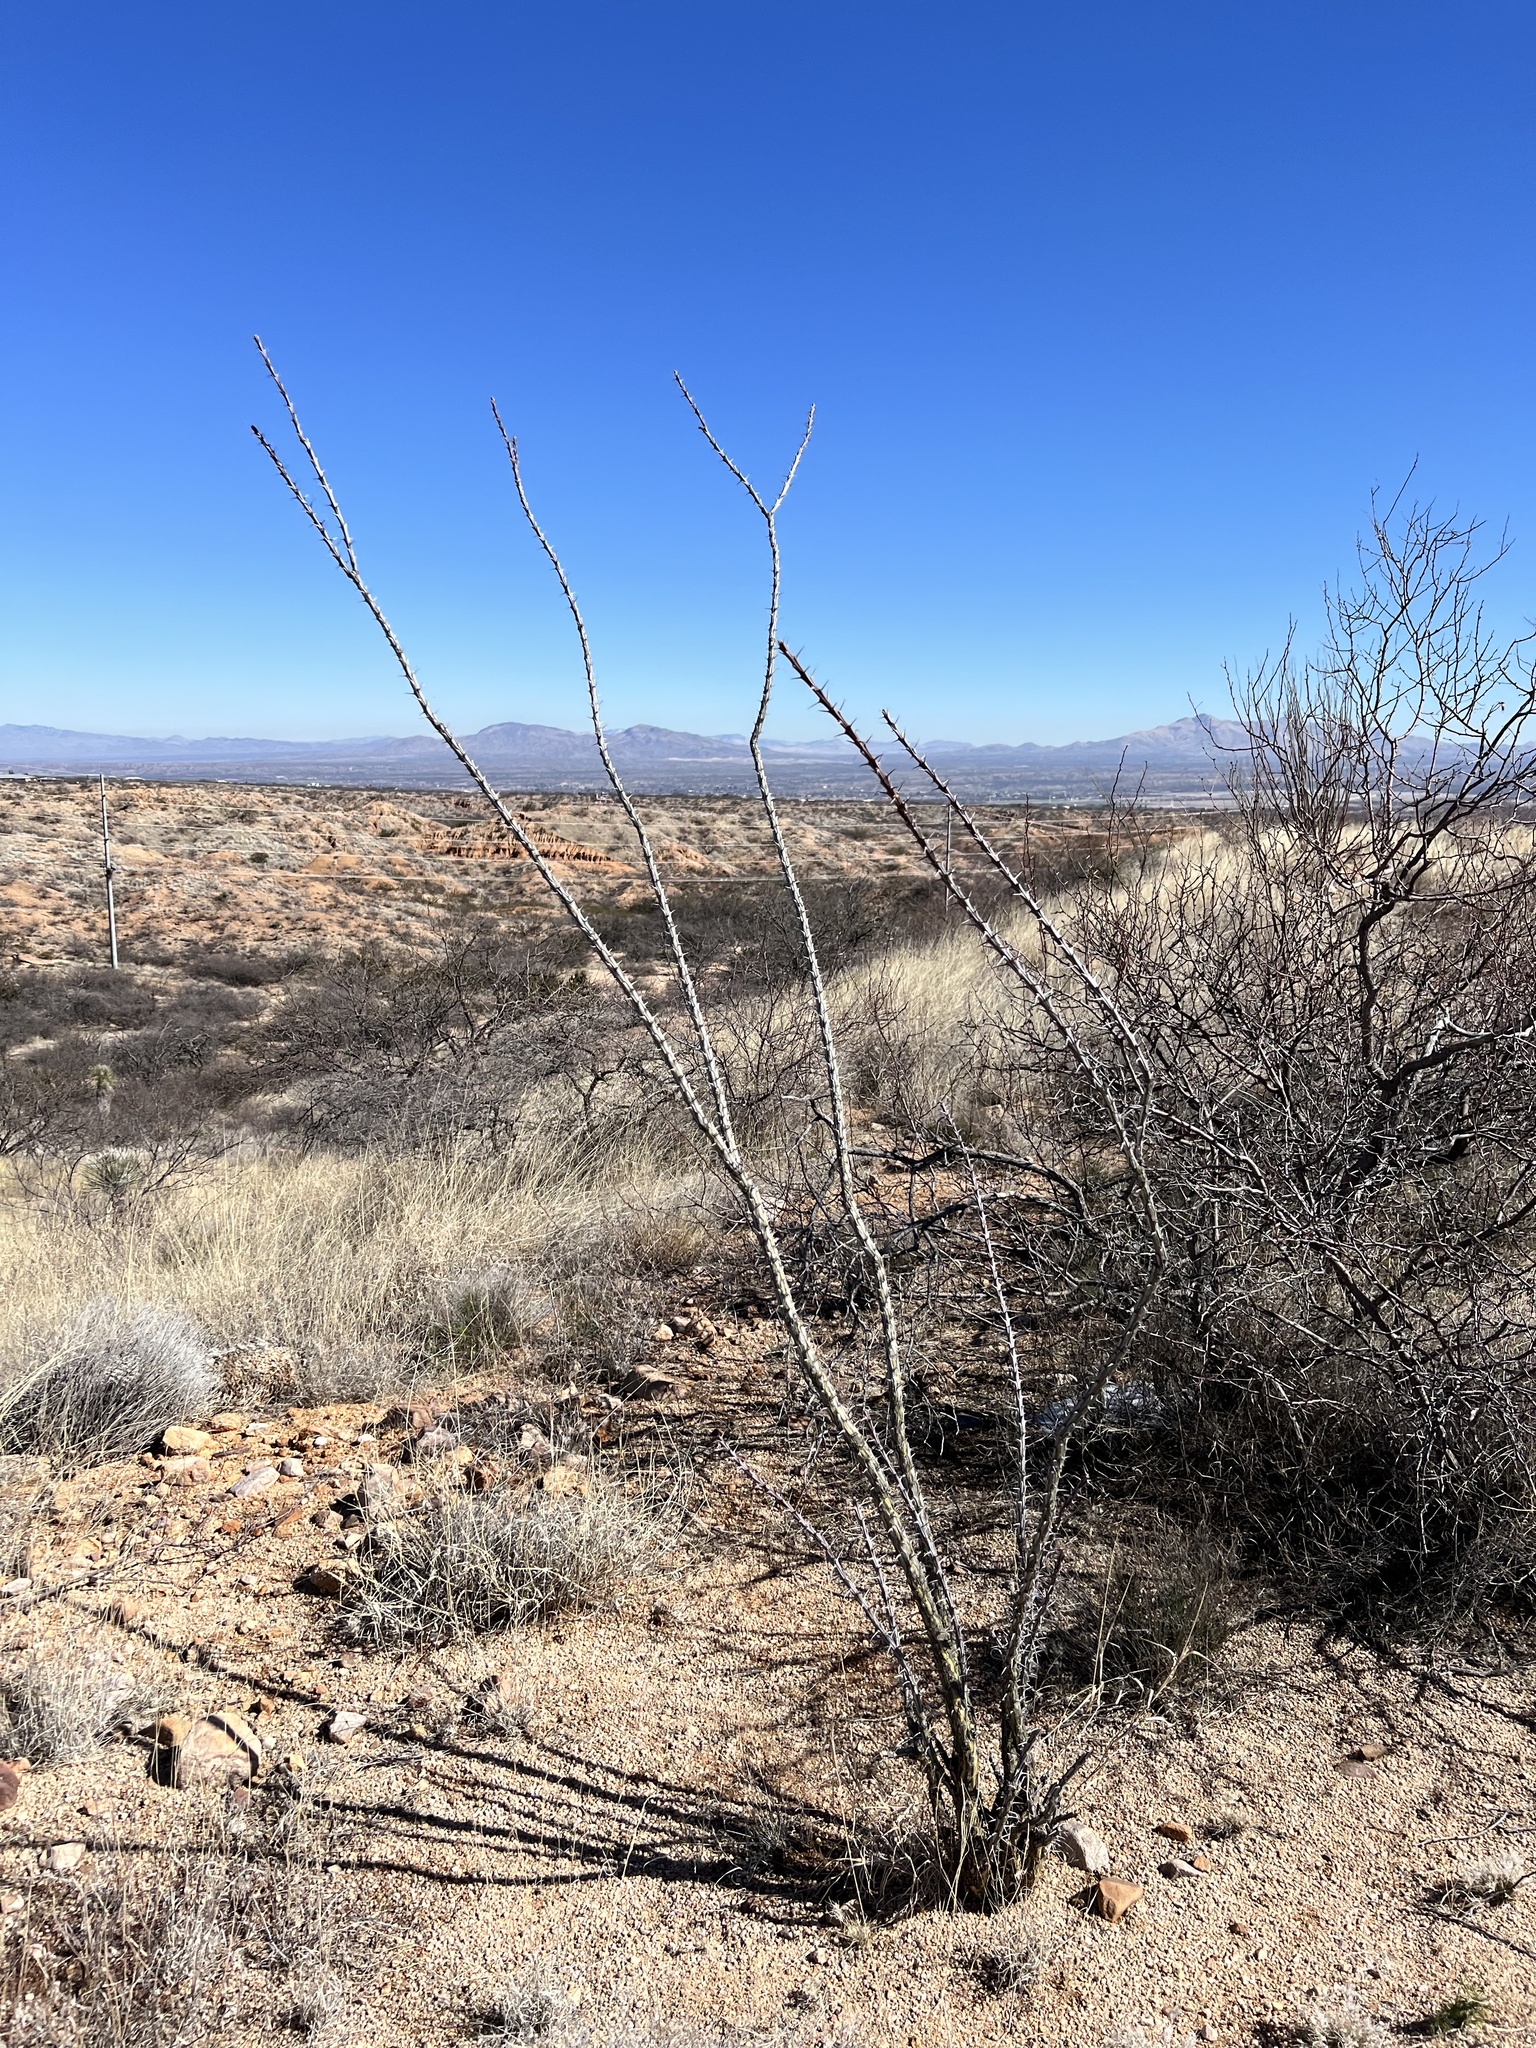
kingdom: Plantae
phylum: Tracheophyta
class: Magnoliopsida
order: Ericales
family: Fouquieriaceae
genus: Fouquieria
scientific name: Fouquieria splendens
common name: Vine-cactus
